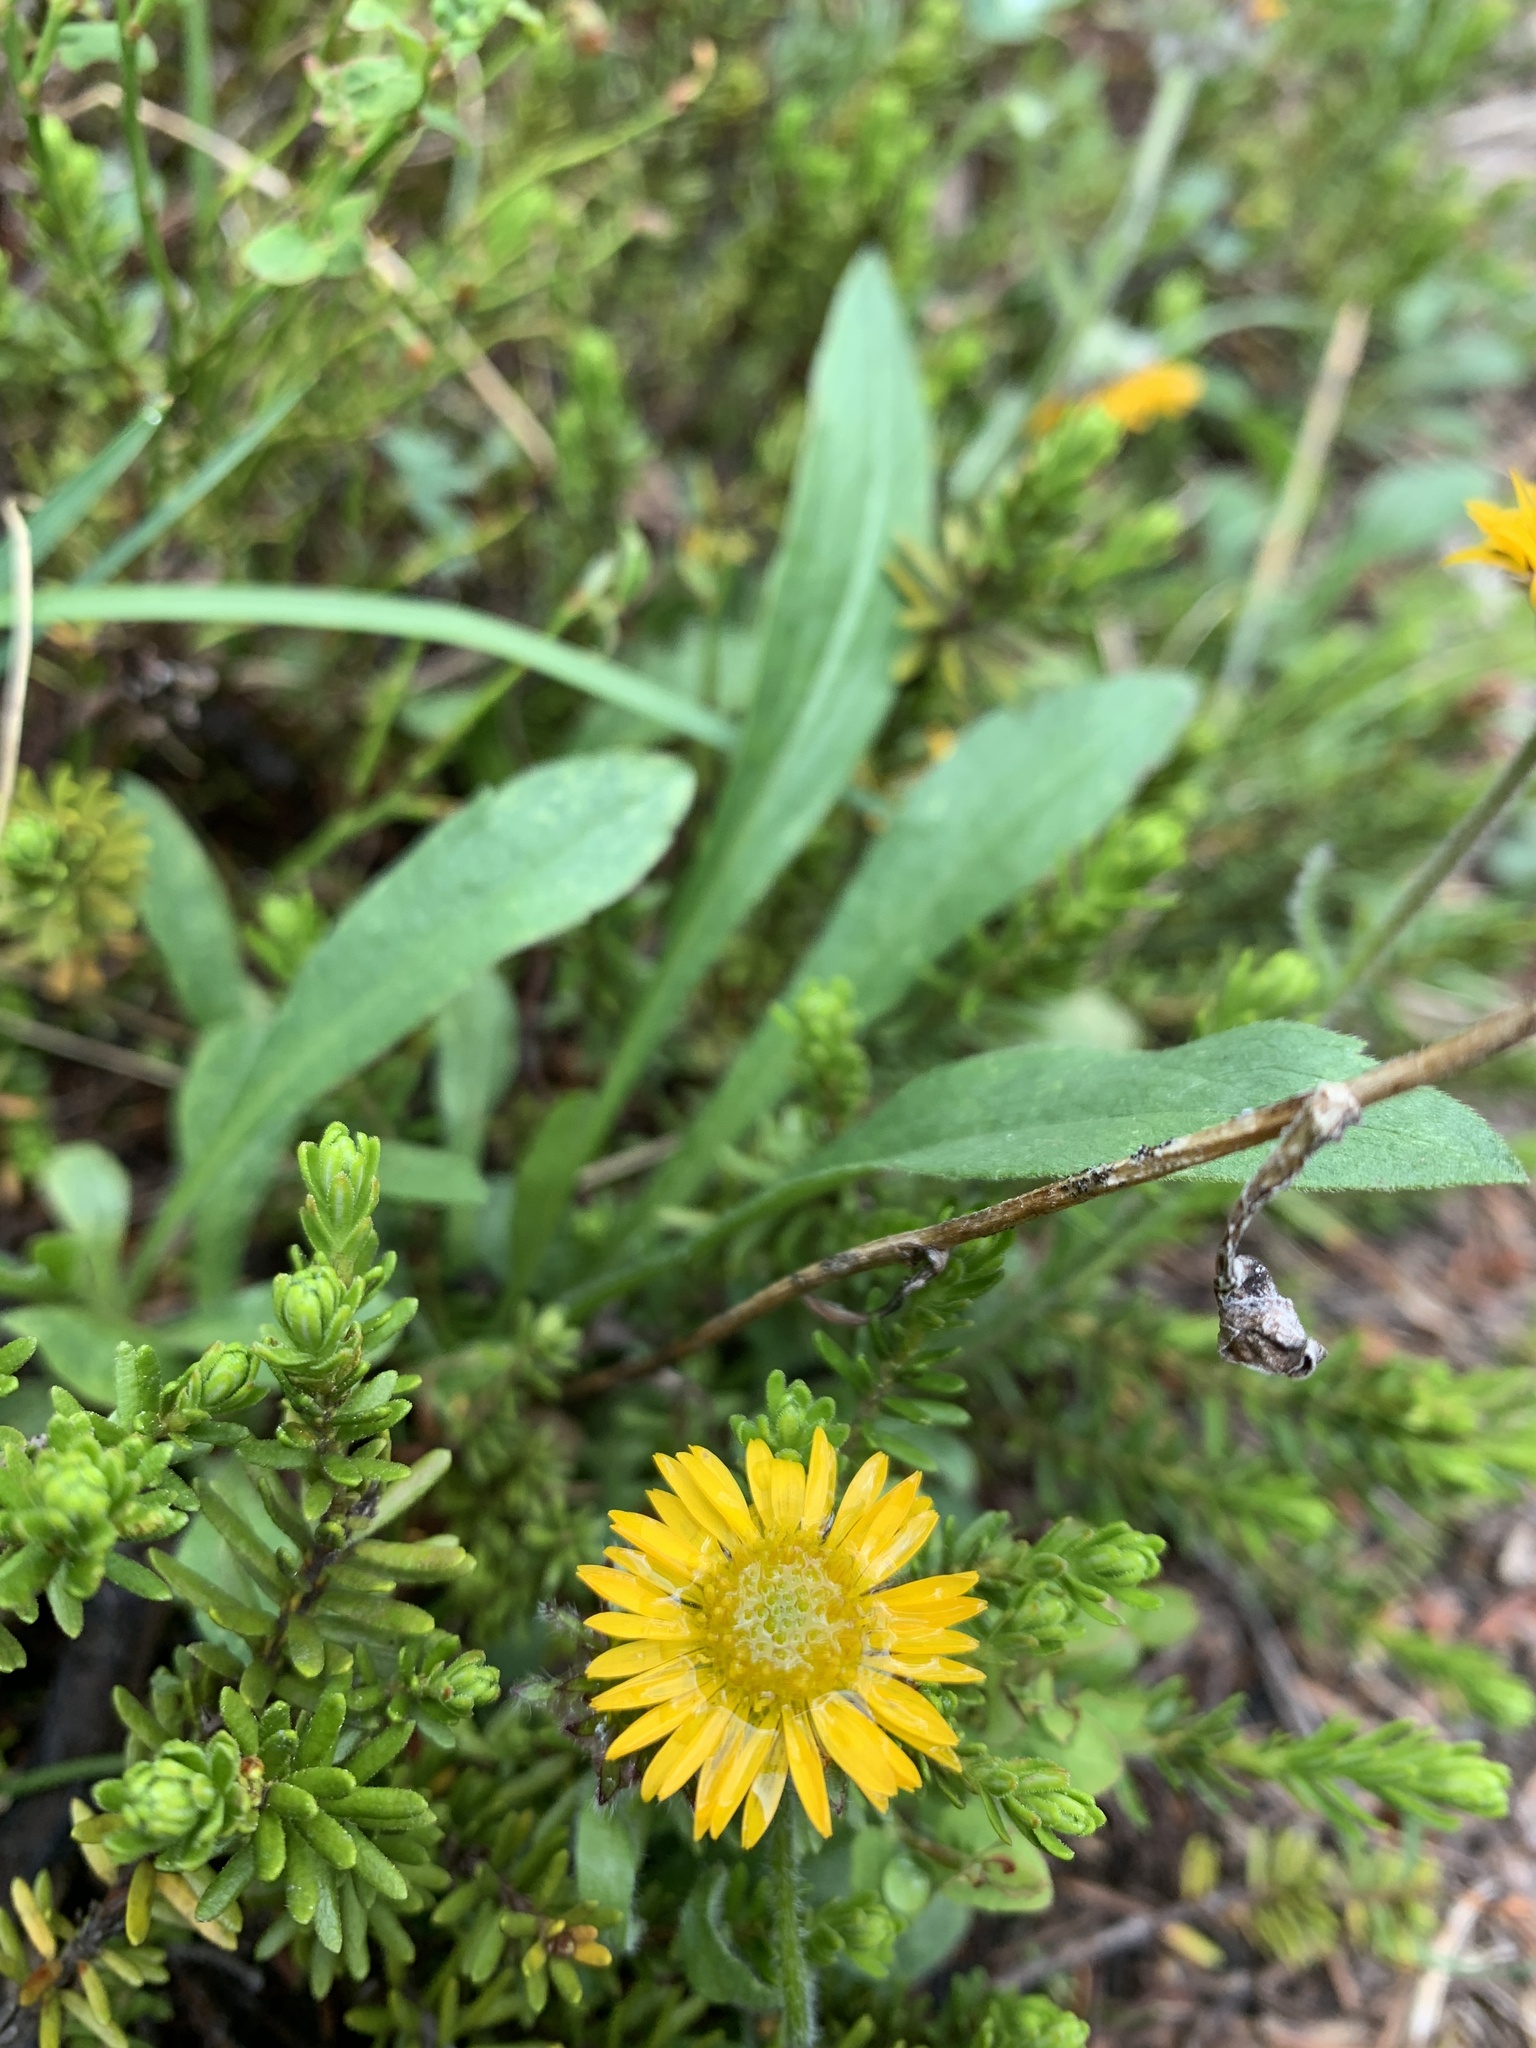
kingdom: Plantae
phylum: Tracheophyta
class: Magnoliopsida
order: Asterales
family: Asteraceae
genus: Erigeron
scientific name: Erigeron aureus
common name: Alpine yellow fleabane
